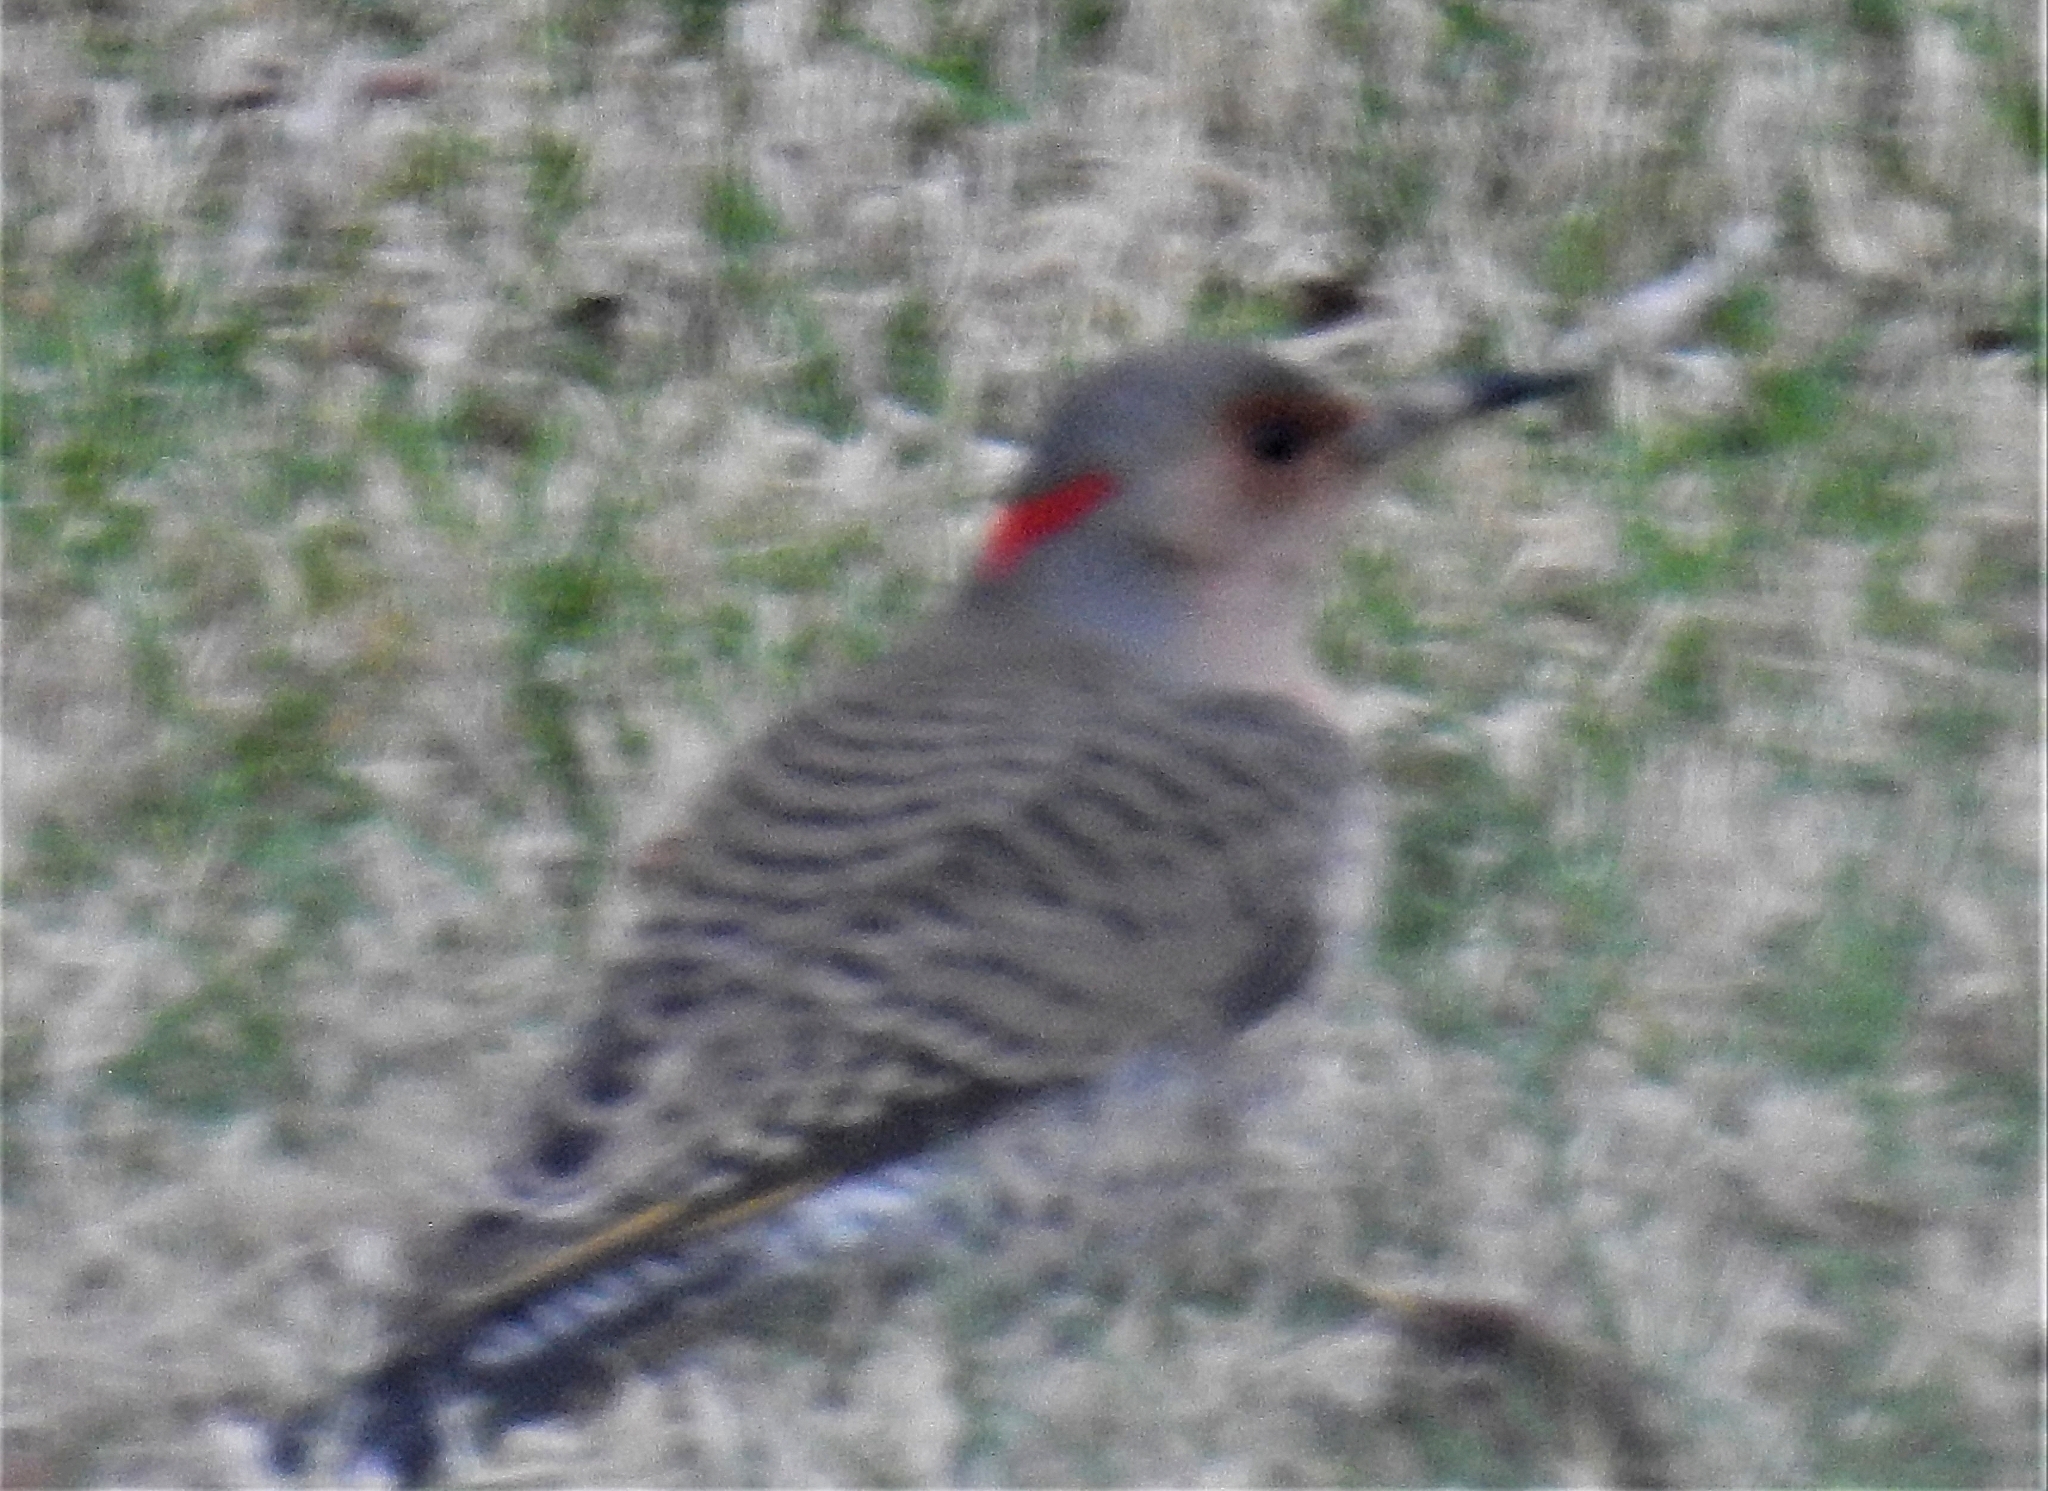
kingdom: Animalia
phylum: Chordata
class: Aves
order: Piciformes
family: Picidae
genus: Colaptes
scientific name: Colaptes auratus
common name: Northern flicker
